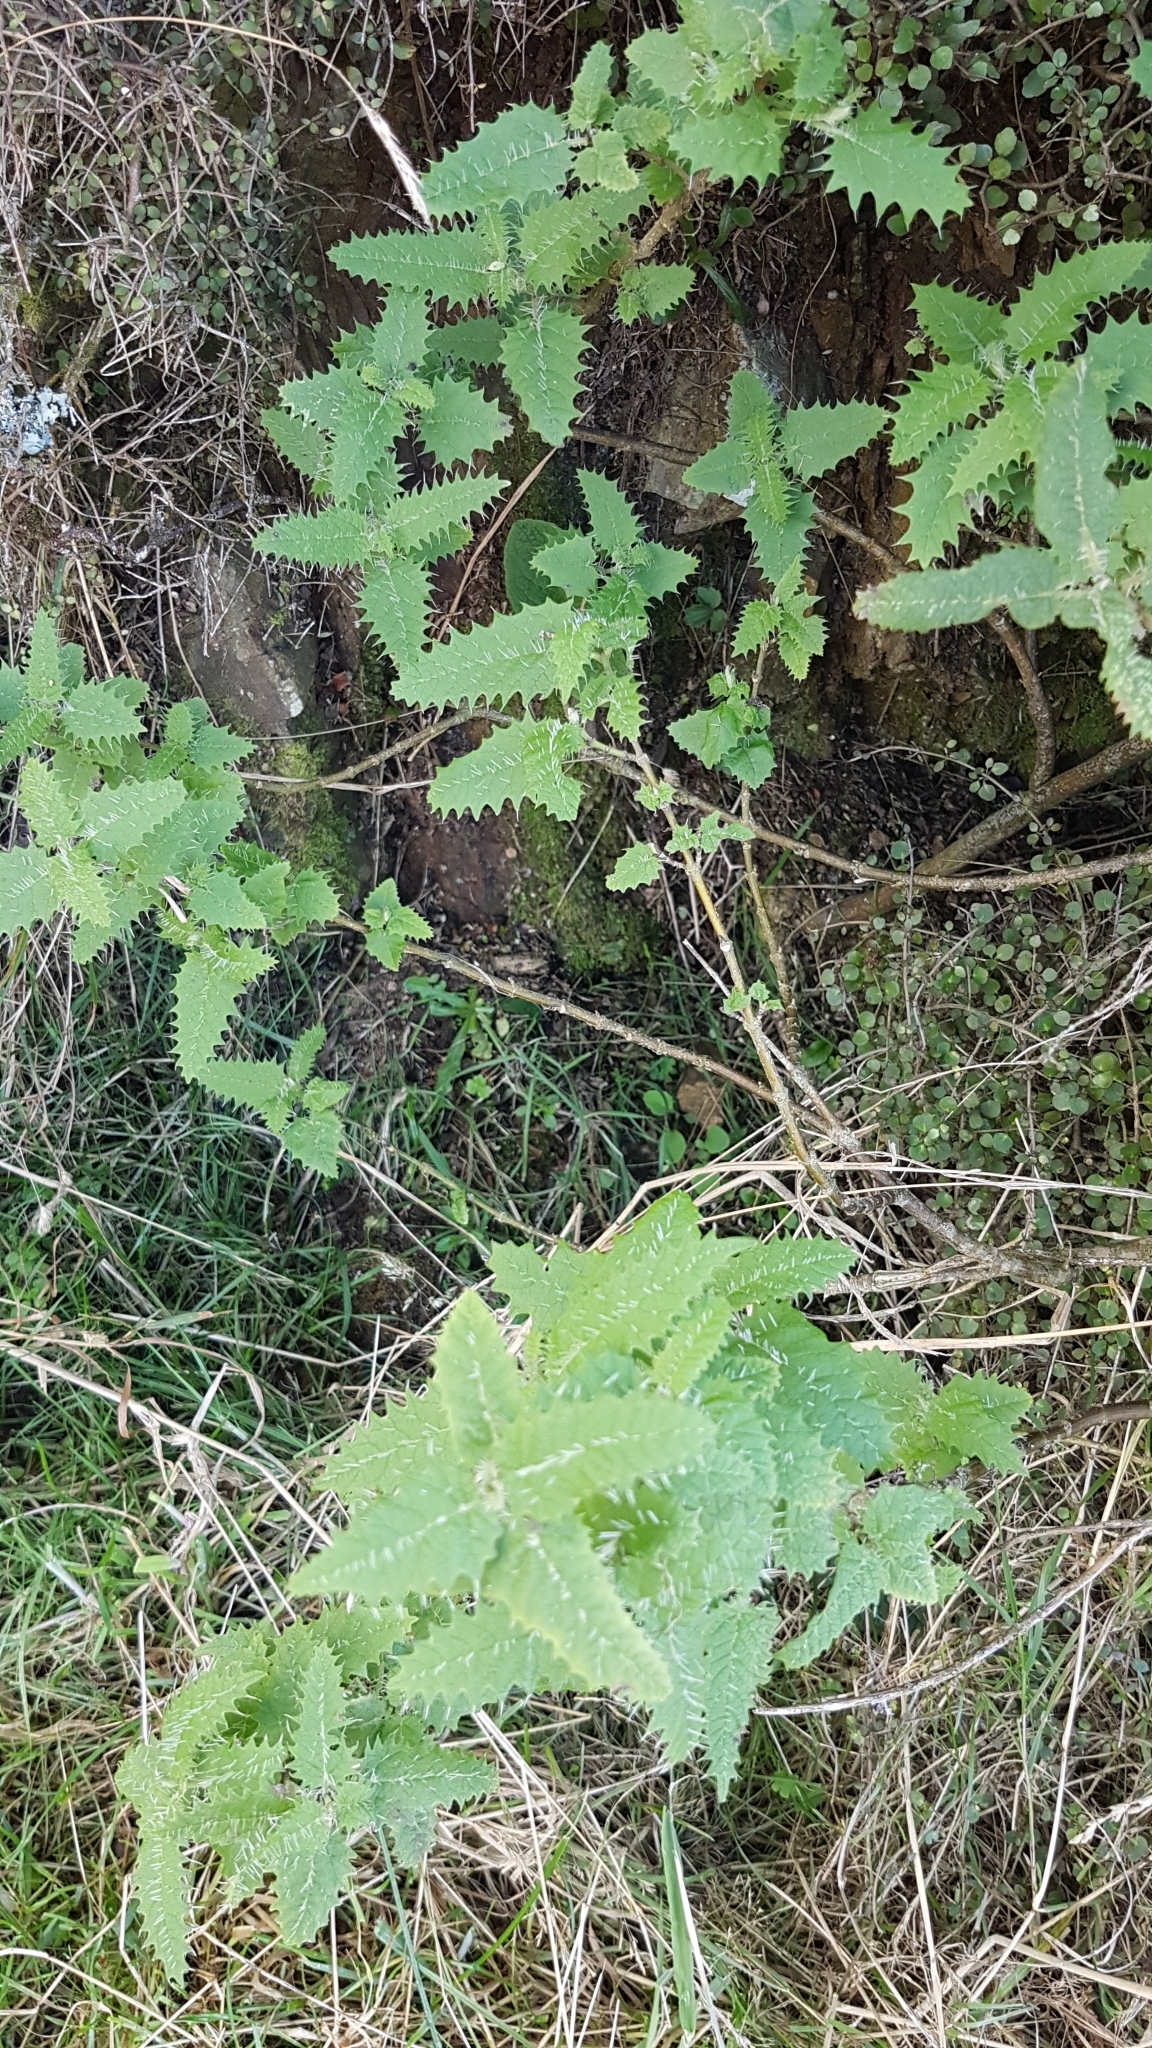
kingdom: Plantae
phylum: Tracheophyta
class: Magnoliopsida
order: Rosales
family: Urticaceae
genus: Urtica
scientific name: Urtica ferox
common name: Tree nettle
